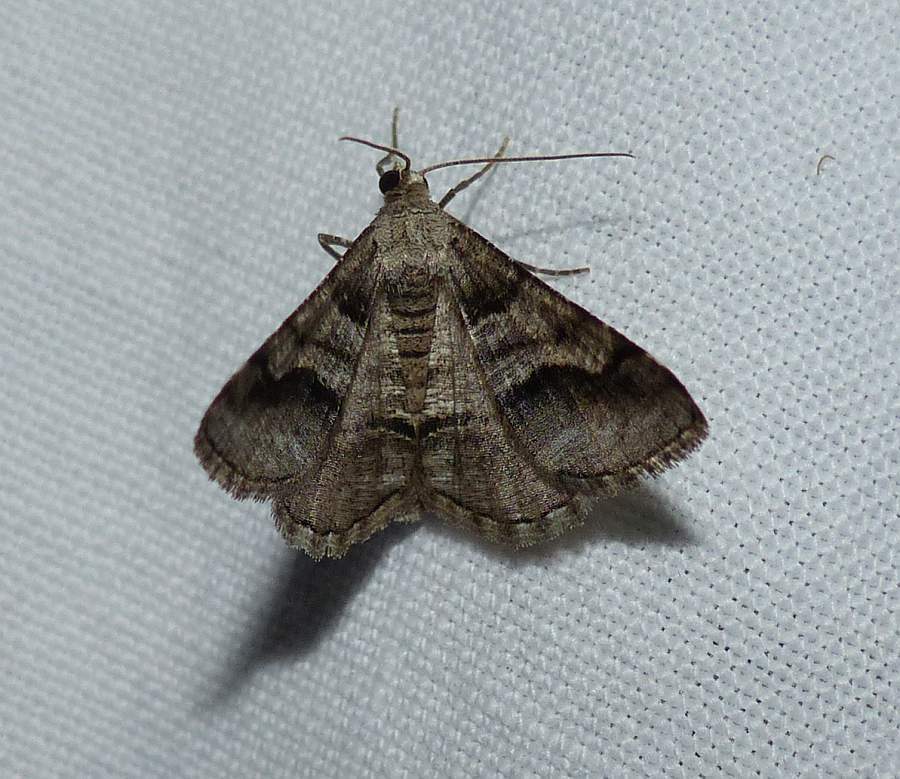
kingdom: Animalia
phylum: Arthropoda
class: Insecta
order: Lepidoptera
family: Geometridae
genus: Digrammia
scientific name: Digrammia continuata
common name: Curve-lined angle
